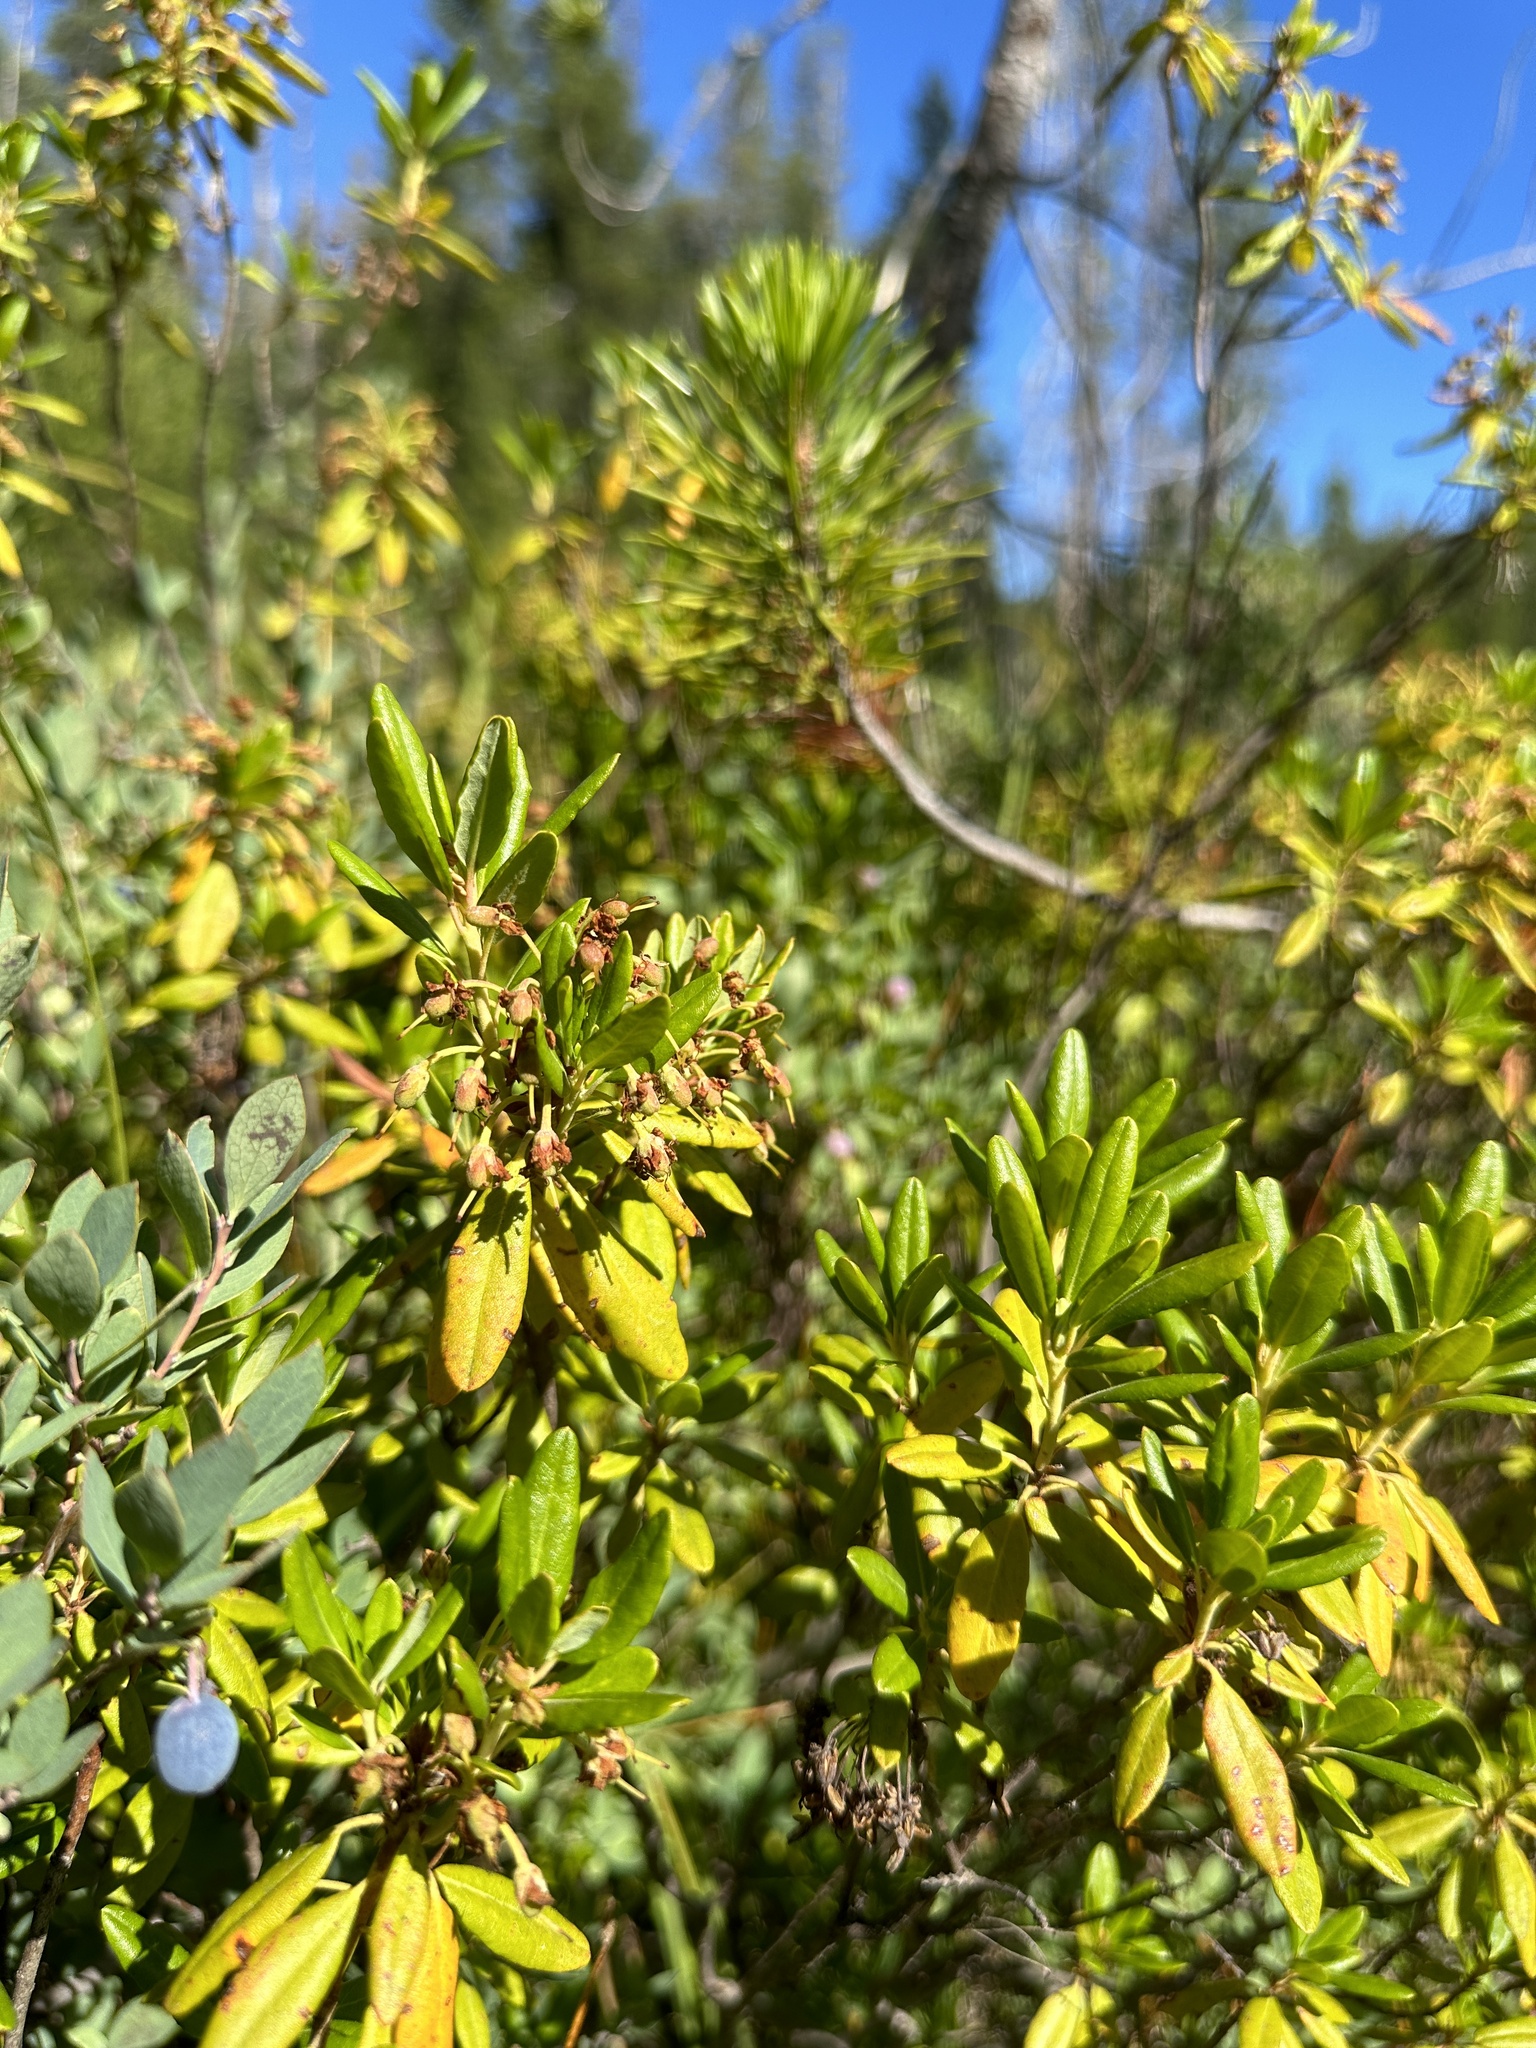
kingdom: Plantae
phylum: Tracheophyta
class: Magnoliopsida
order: Ericales
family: Ericaceae
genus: Rhododendron
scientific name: Rhododendron columbianum
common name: Western labrador tea
